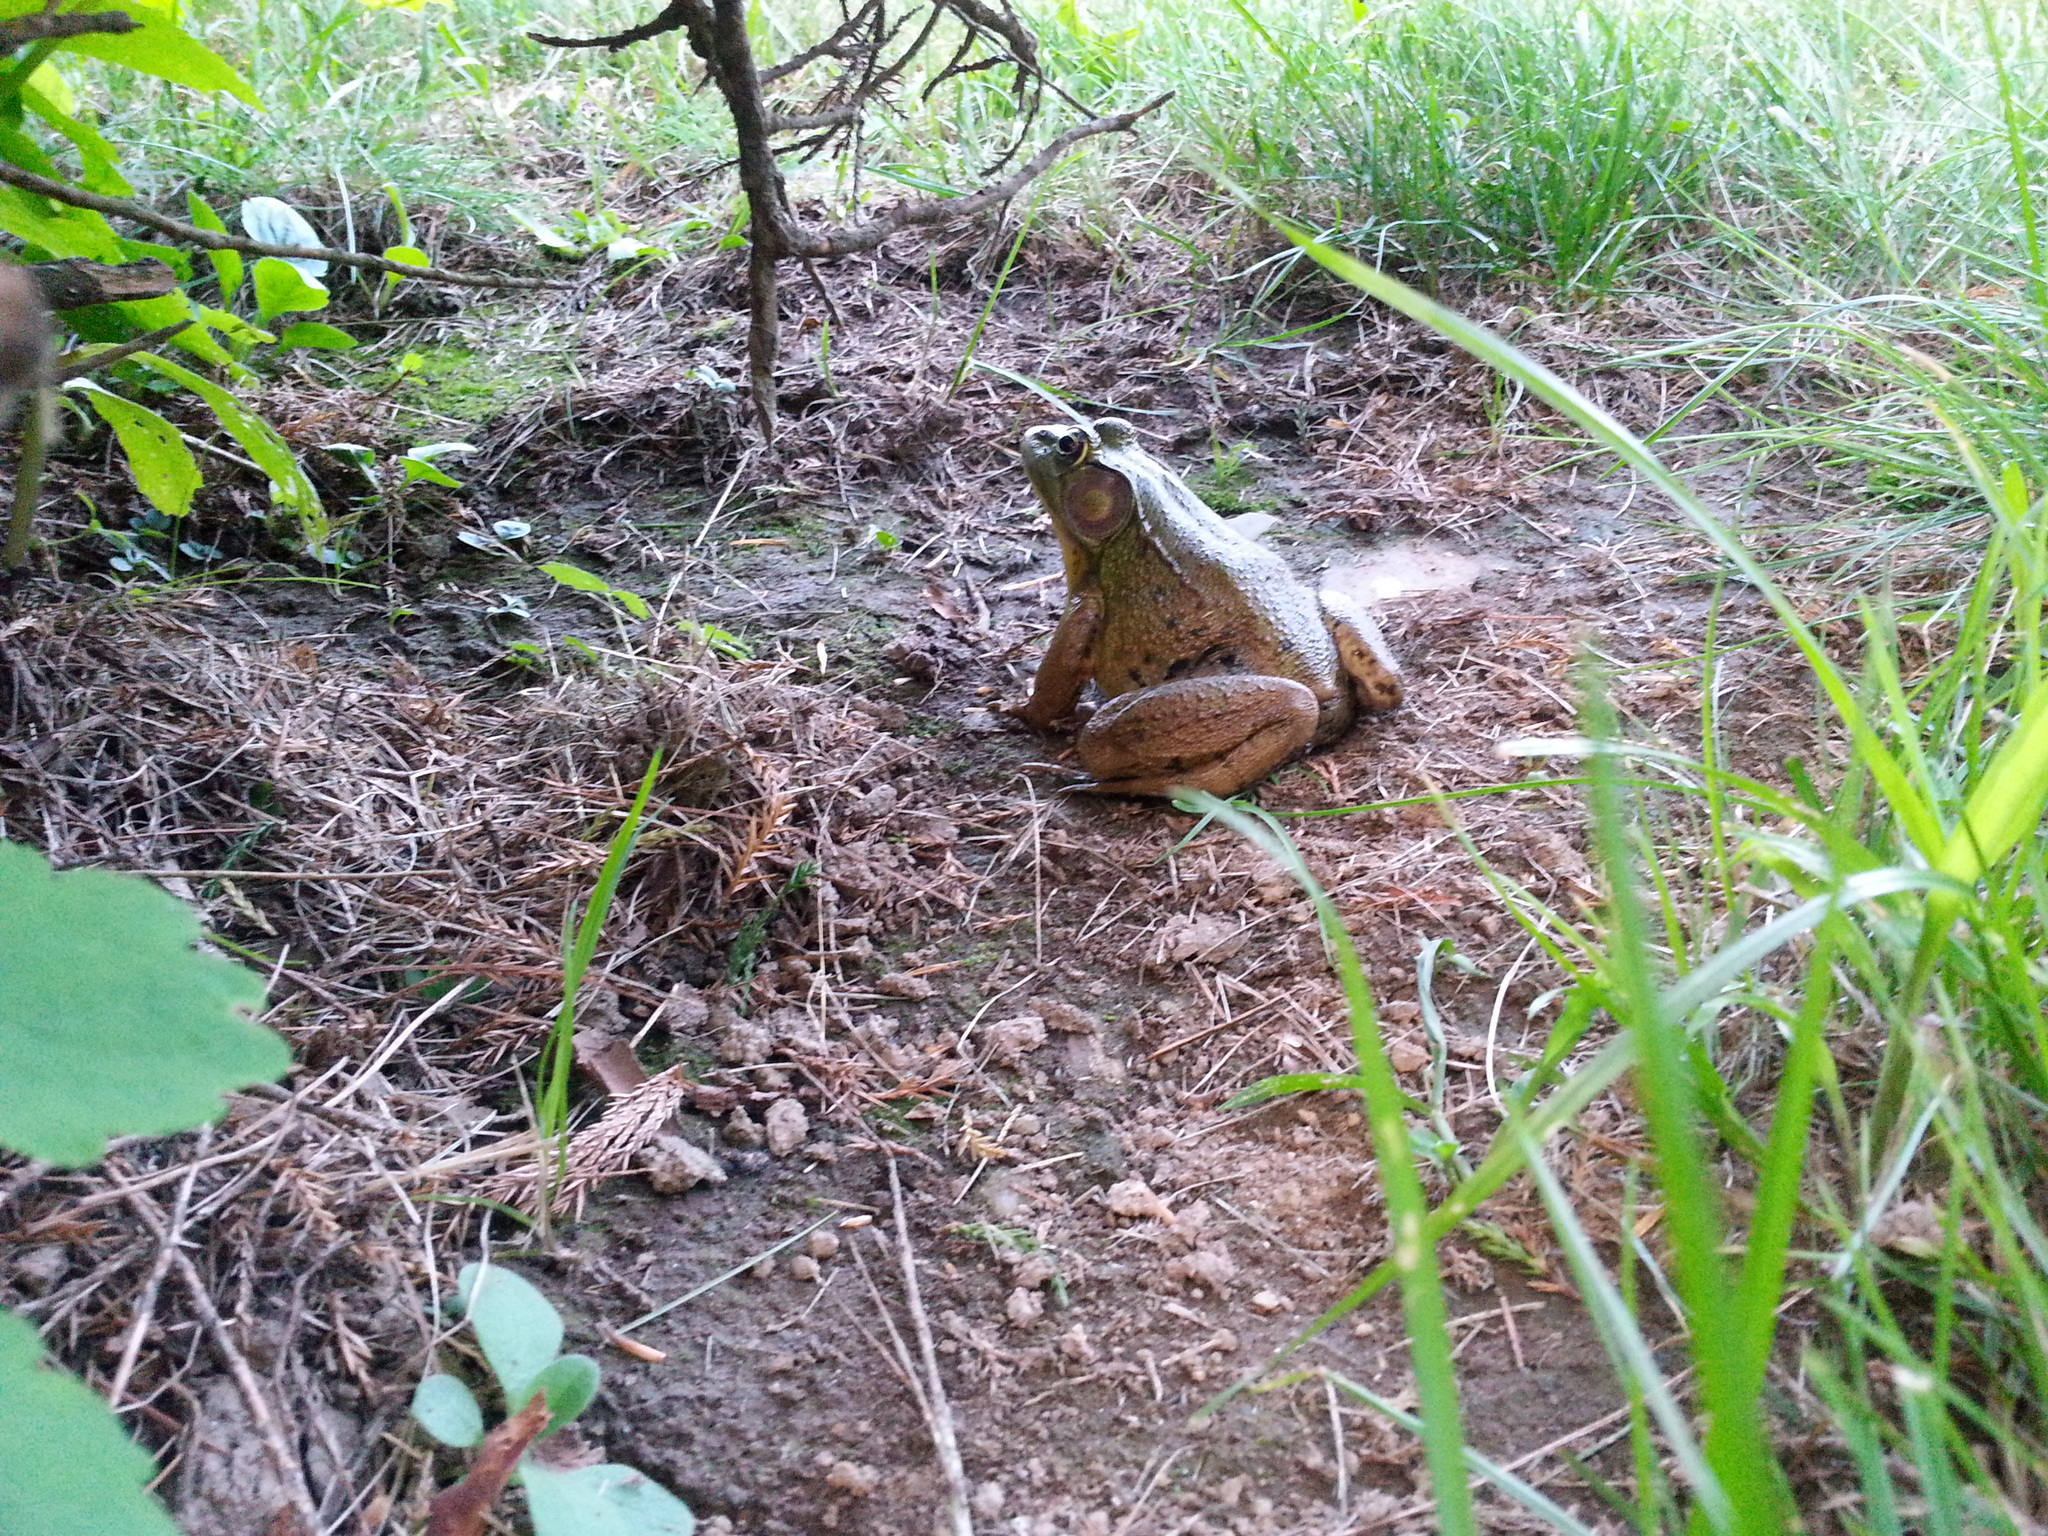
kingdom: Animalia
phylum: Chordata
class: Amphibia
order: Anura
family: Ranidae
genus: Lithobates
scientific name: Lithobates clamitans
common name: Green frog
